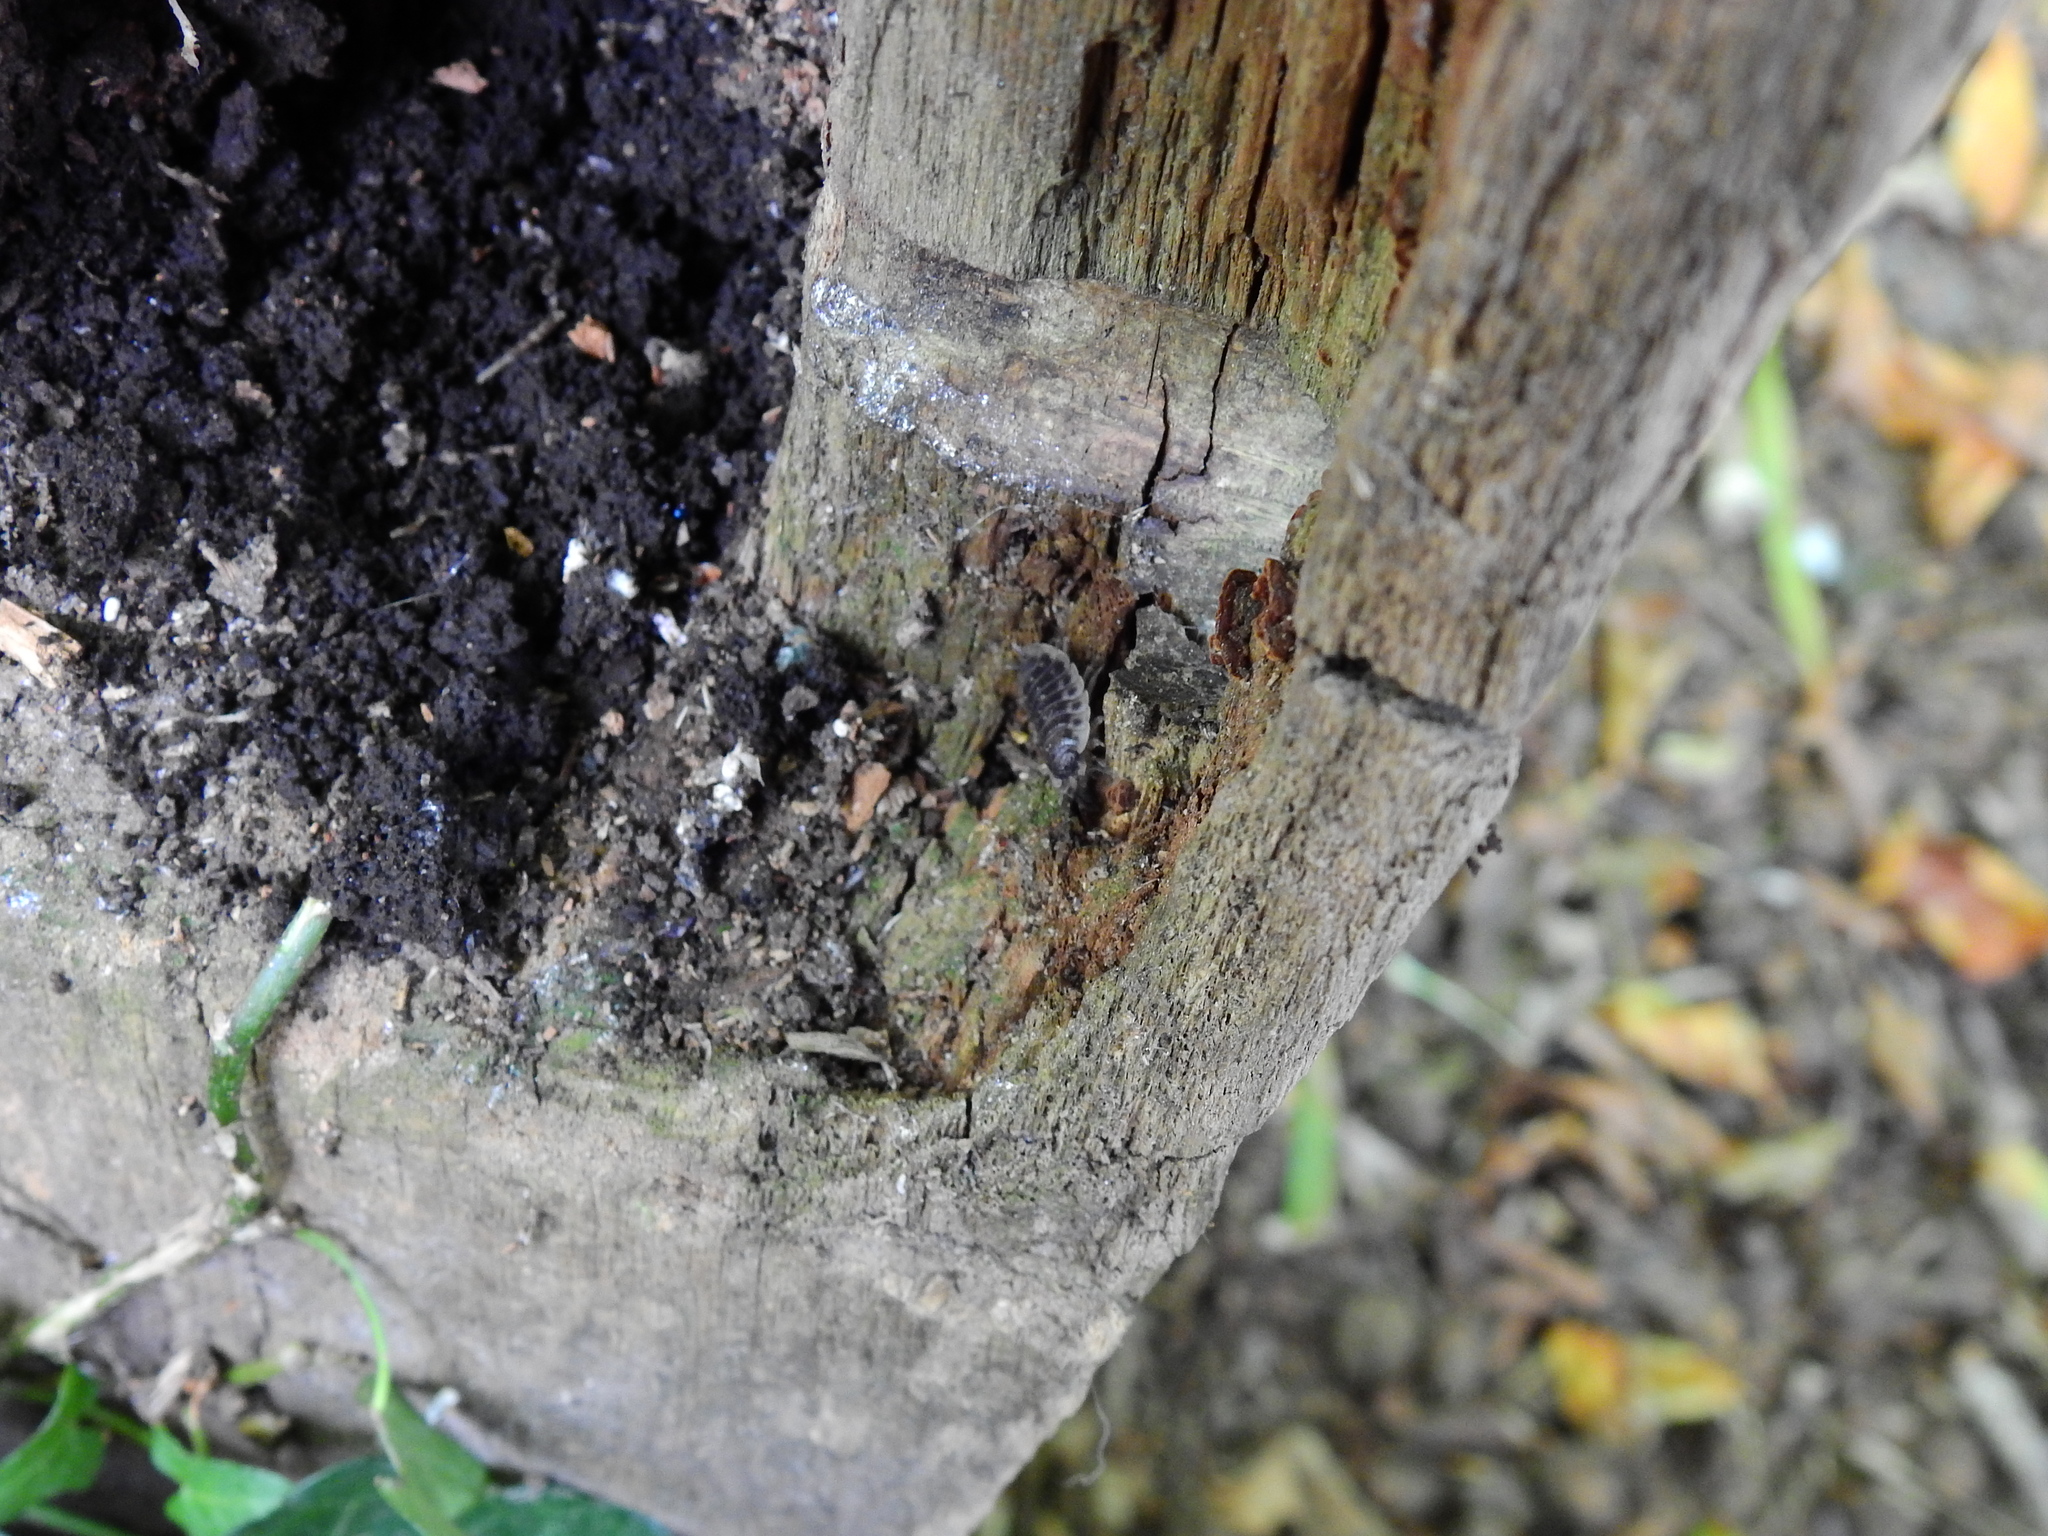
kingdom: Animalia
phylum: Arthropoda
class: Malacostraca
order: Isopoda
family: Oniscidae
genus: Oniscus
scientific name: Oniscus asellus
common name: Common shiny woodlouse
